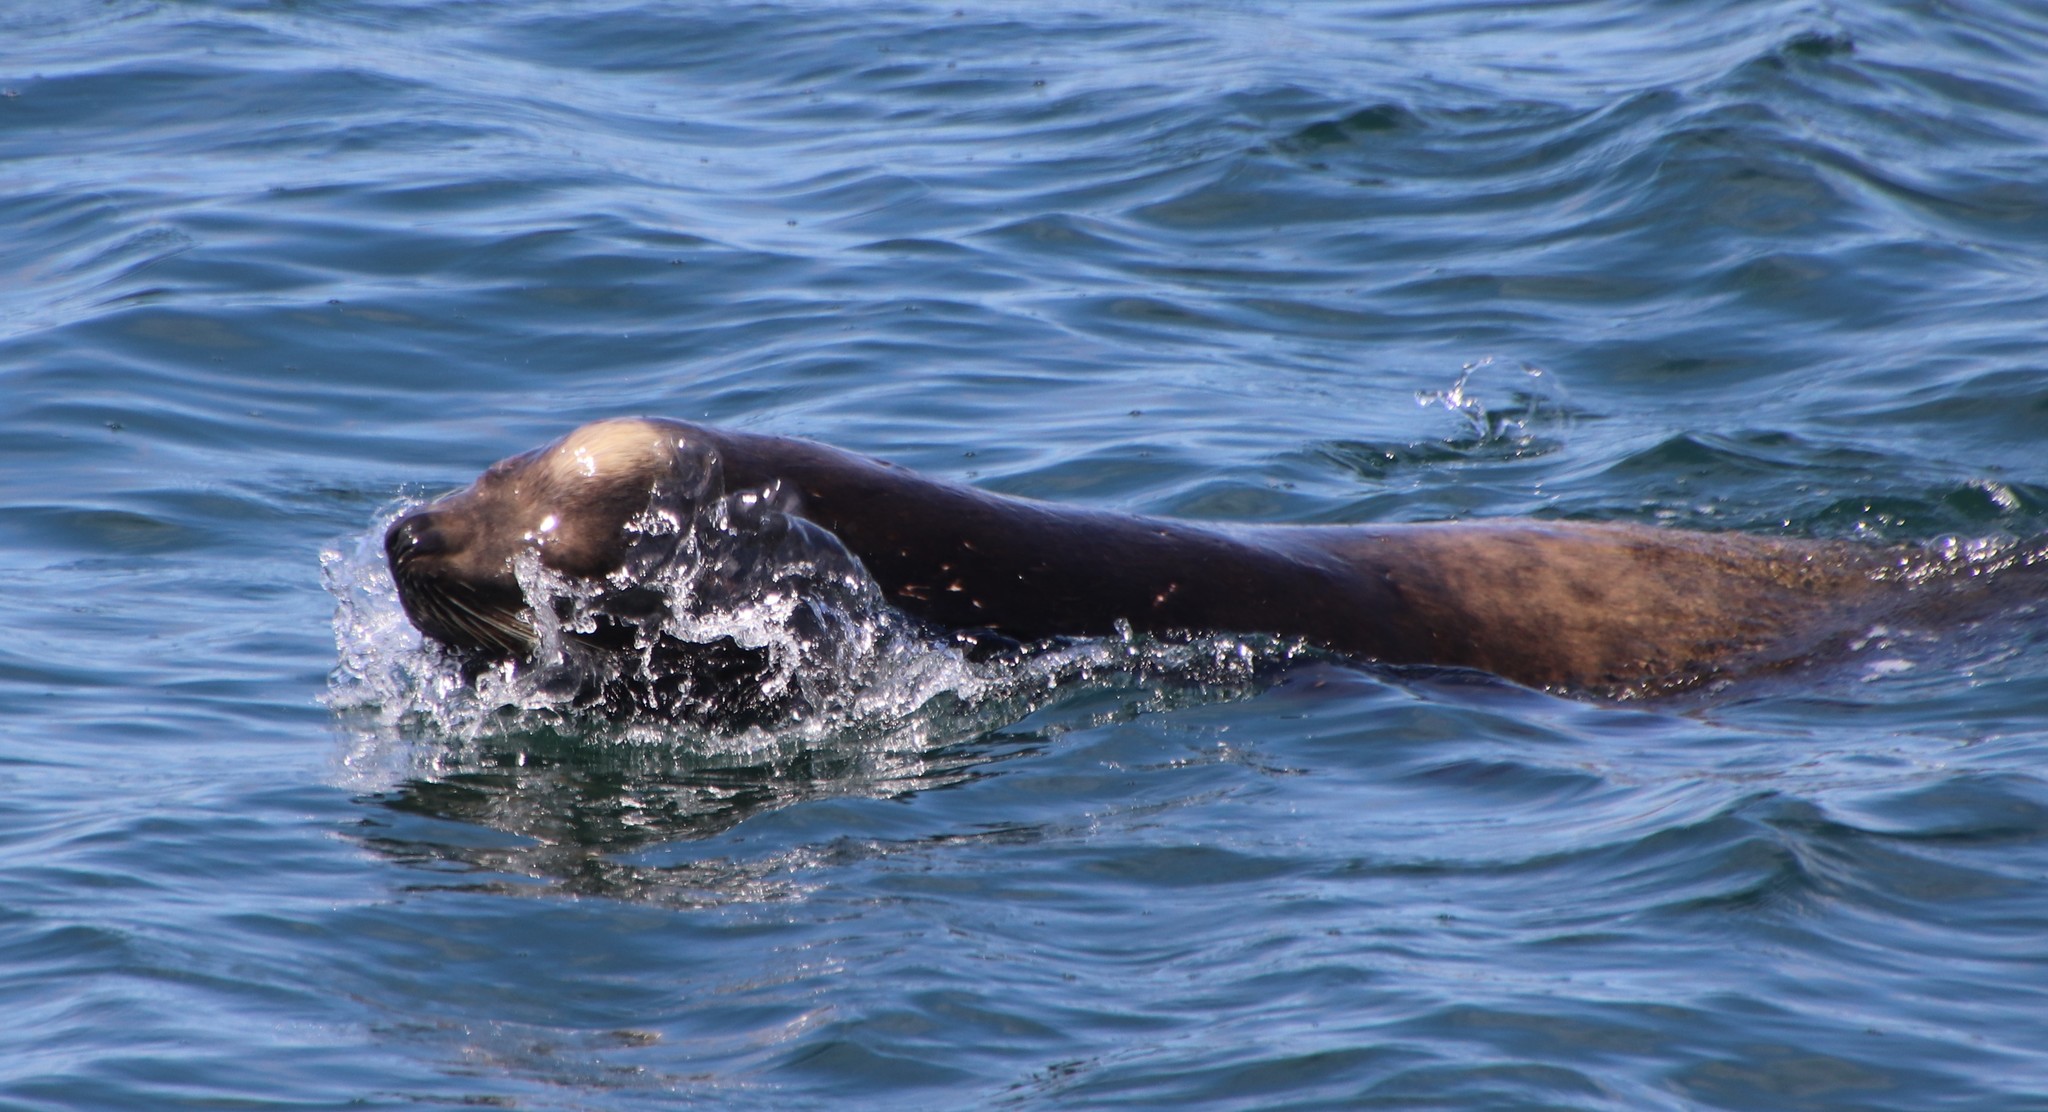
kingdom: Animalia
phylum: Chordata
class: Mammalia
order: Carnivora
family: Otariidae
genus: Zalophus
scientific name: Zalophus californianus
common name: California sea lion
